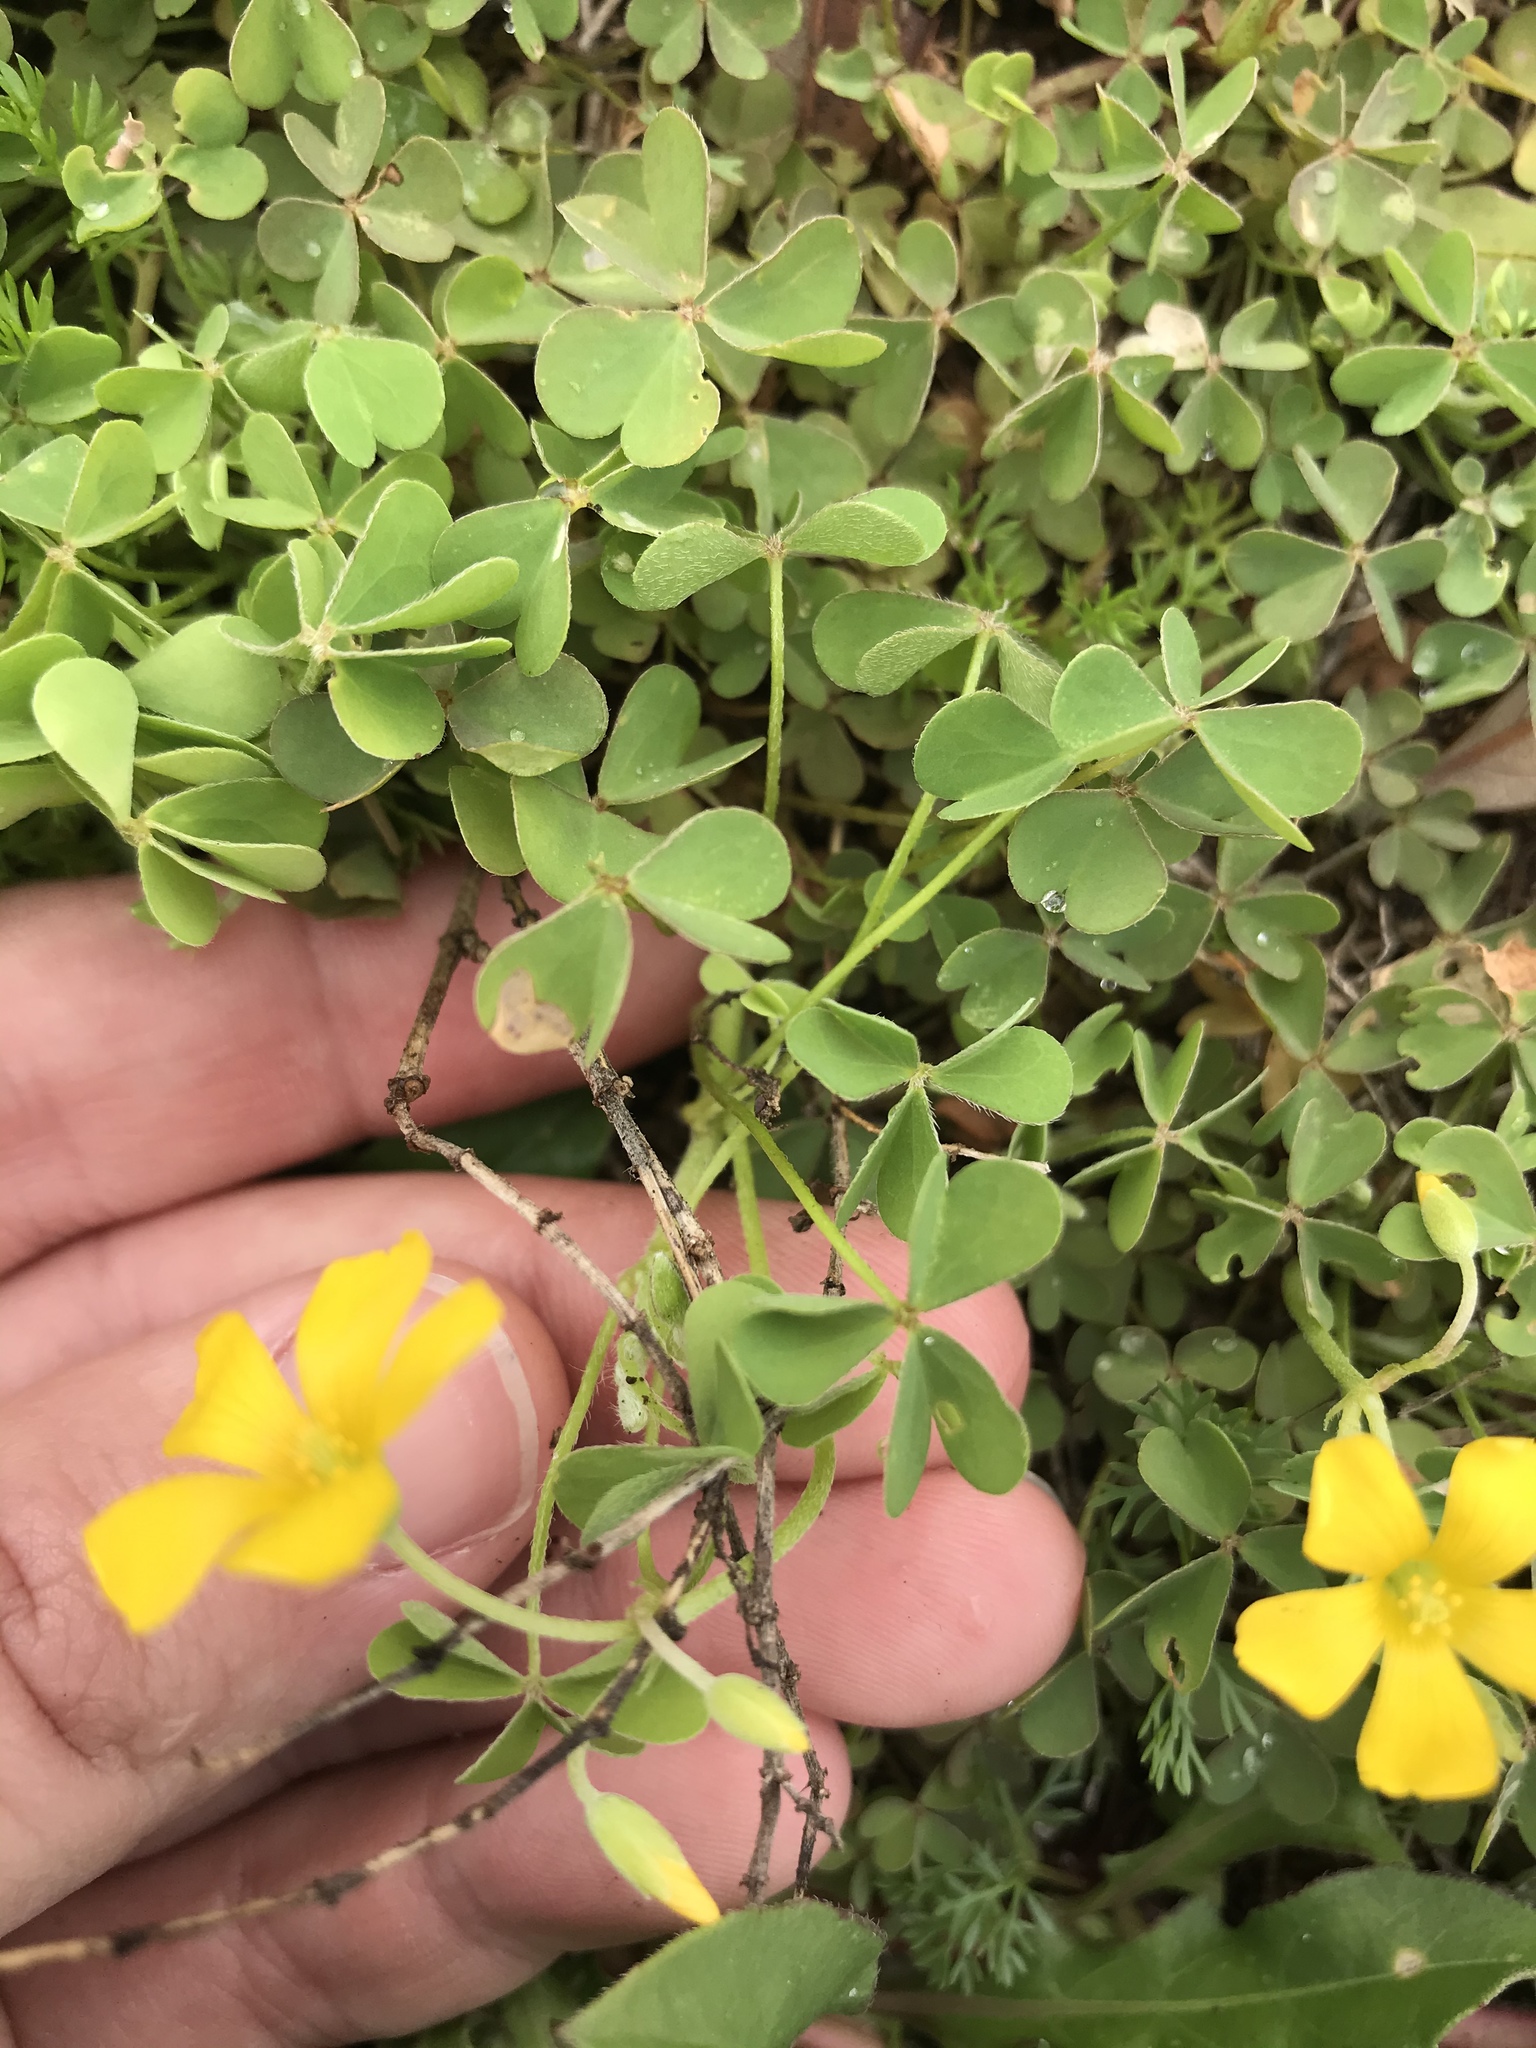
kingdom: Plantae
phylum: Tracheophyta
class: Magnoliopsida
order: Oxalidales
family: Oxalidaceae
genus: Oxalis
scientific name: Oxalis dillenii
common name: Sussex yellow-sorrel
